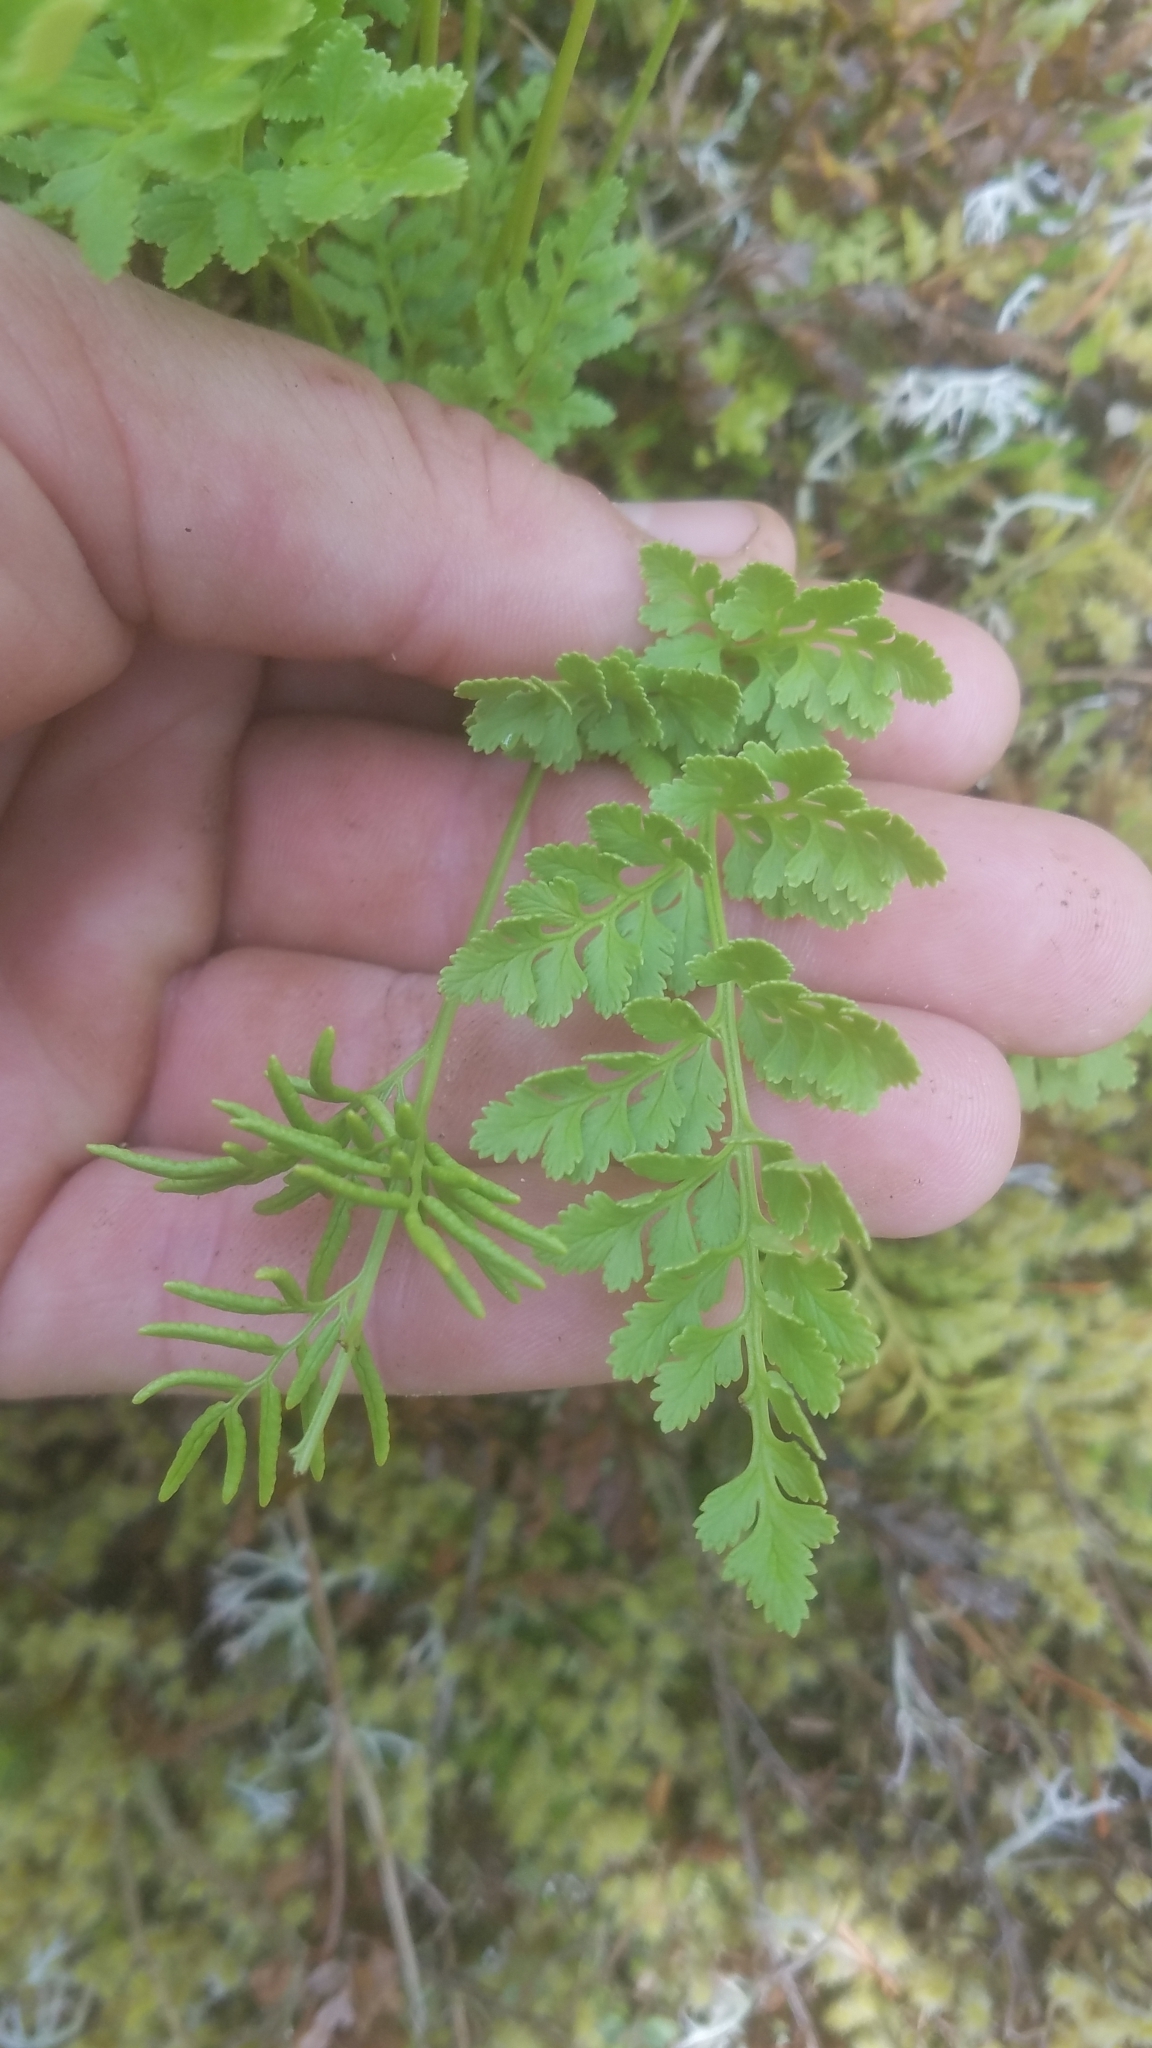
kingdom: Plantae
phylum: Tracheophyta
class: Polypodiopsida
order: Polypodiales
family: Pteridaceae
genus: Cryptogramma
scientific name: Cryptogramma acrostichoides
